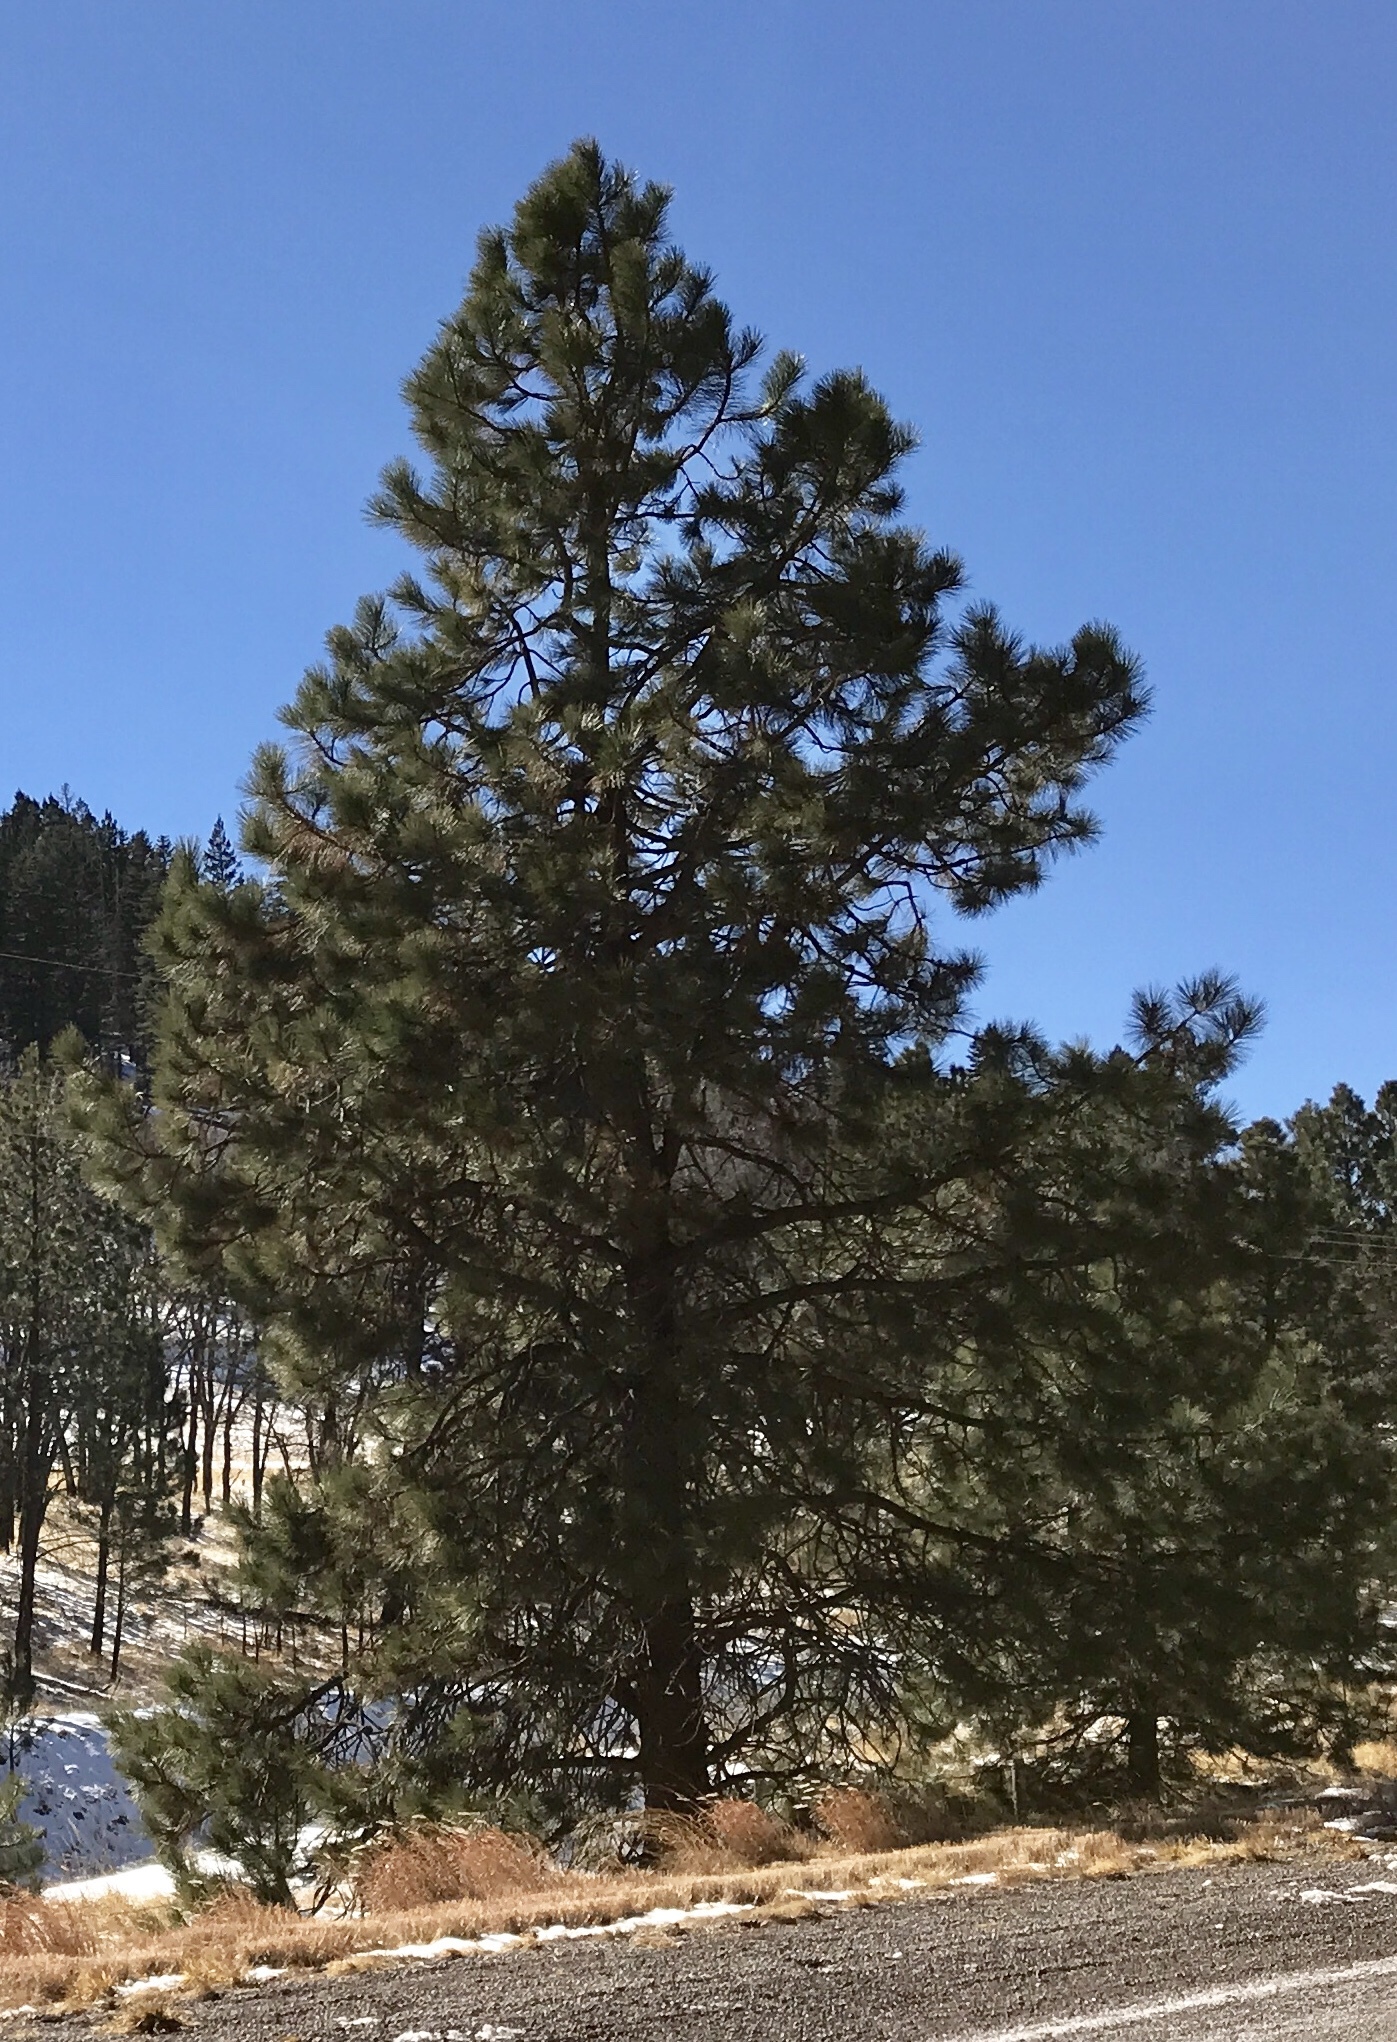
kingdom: Plantae
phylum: Tracheophyta
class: Pinopsida
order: Pinales
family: Pinaceae
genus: Pinus
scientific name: Pinus ponderosa
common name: Western yellow-pine
